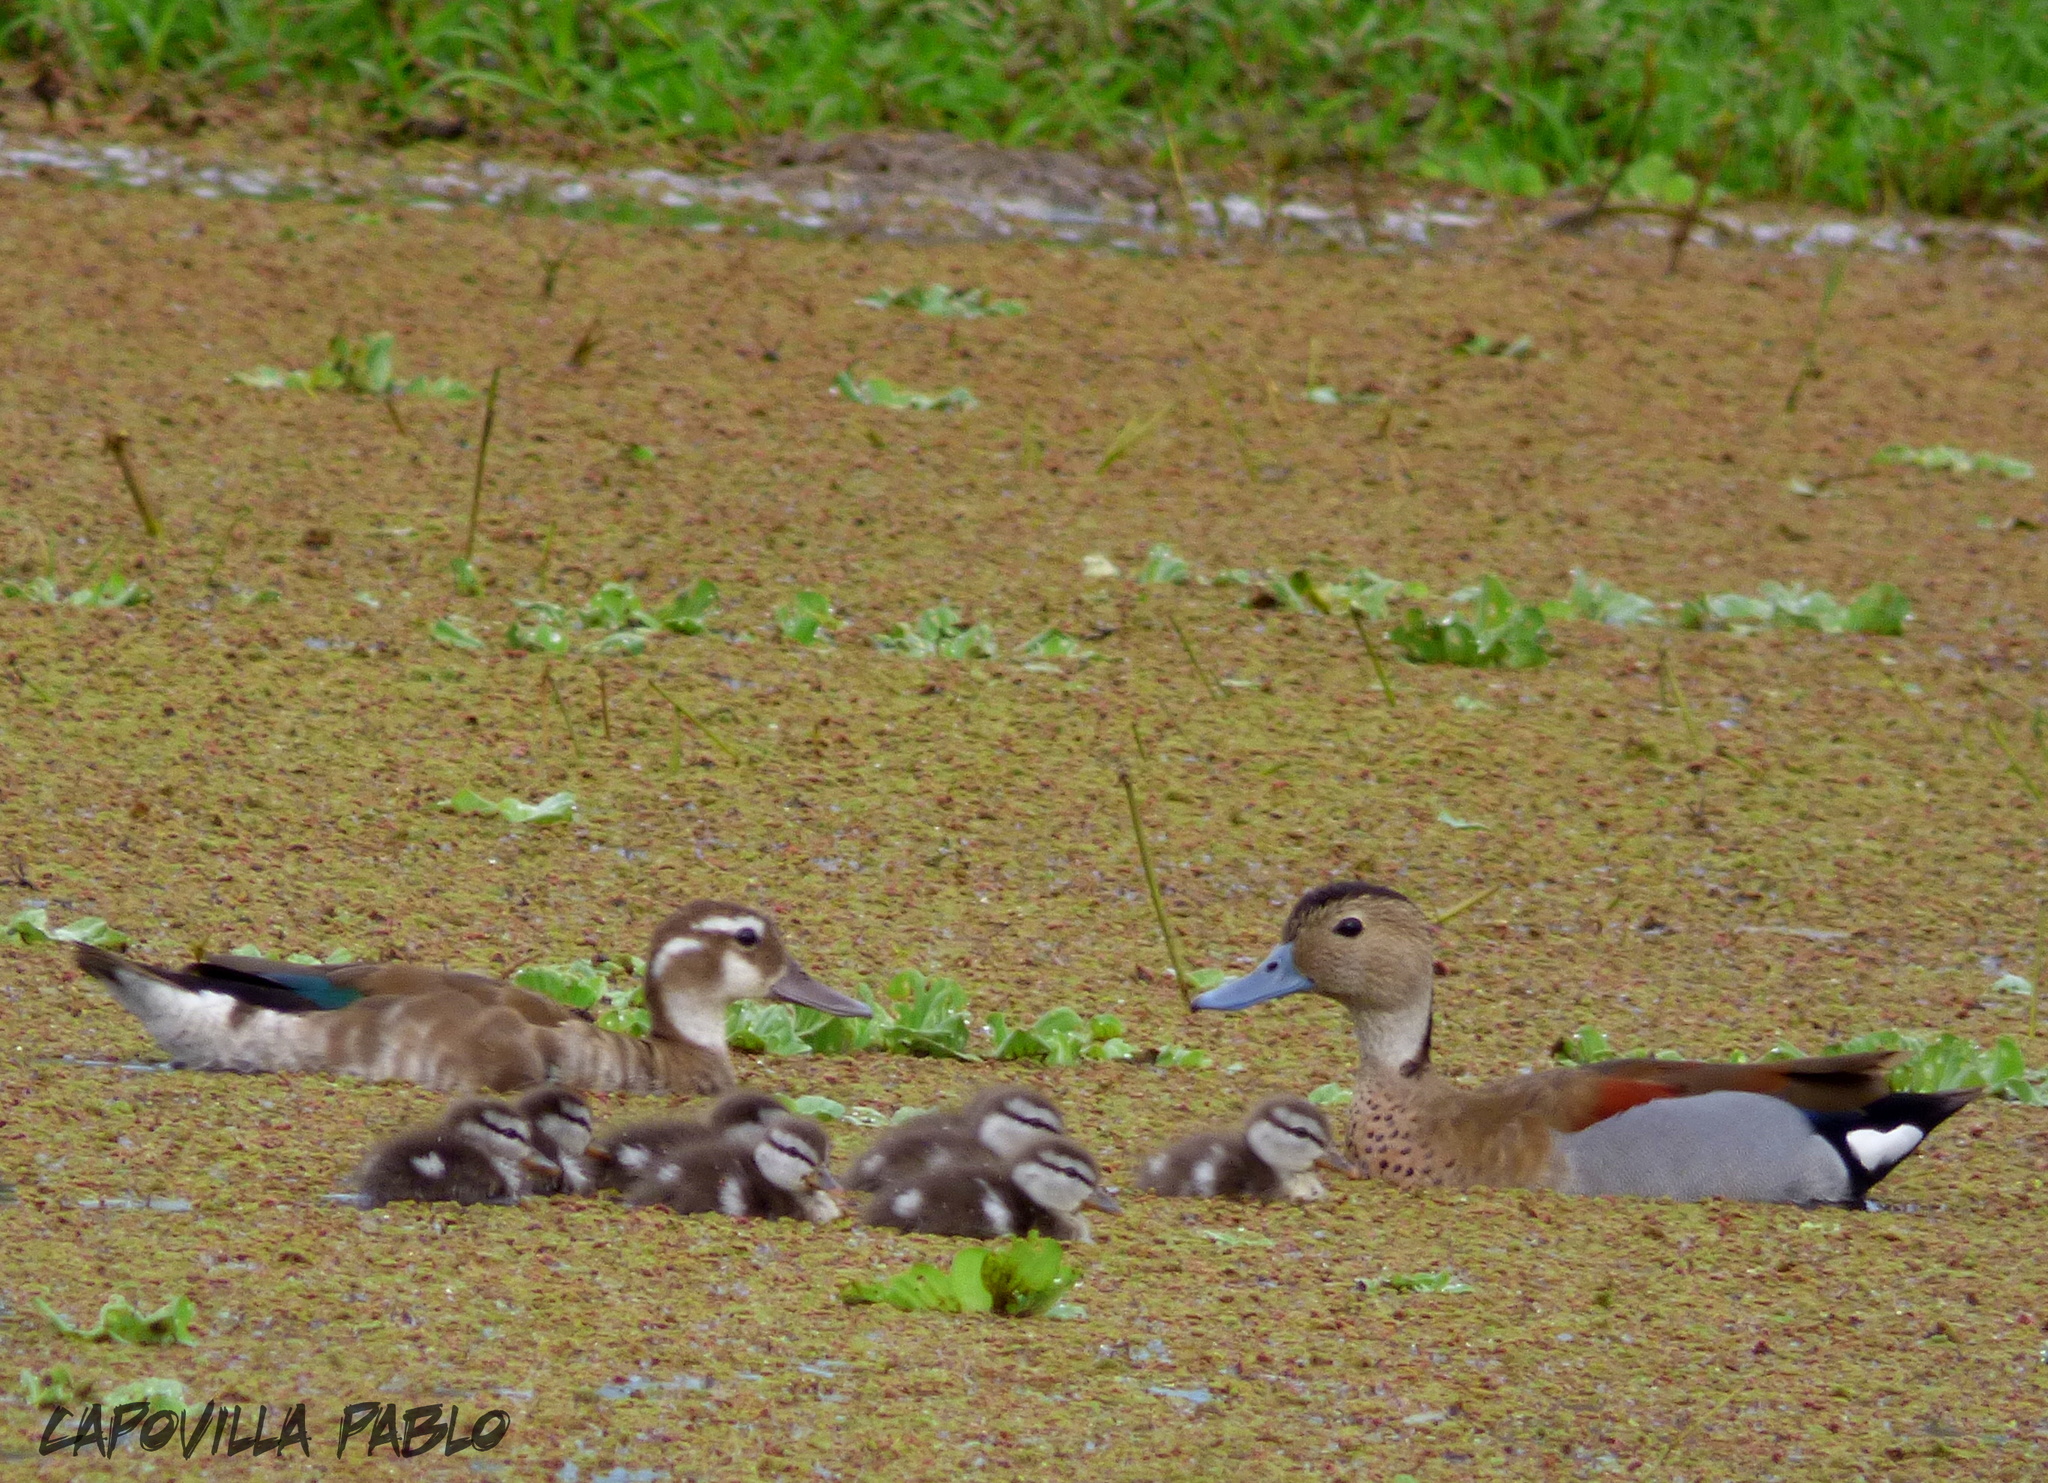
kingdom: Animalia
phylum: Chordata
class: Aves
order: Anseriformes
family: Anatidae
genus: Callonetta
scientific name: Callonetta leucophrys
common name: Ringed teal
